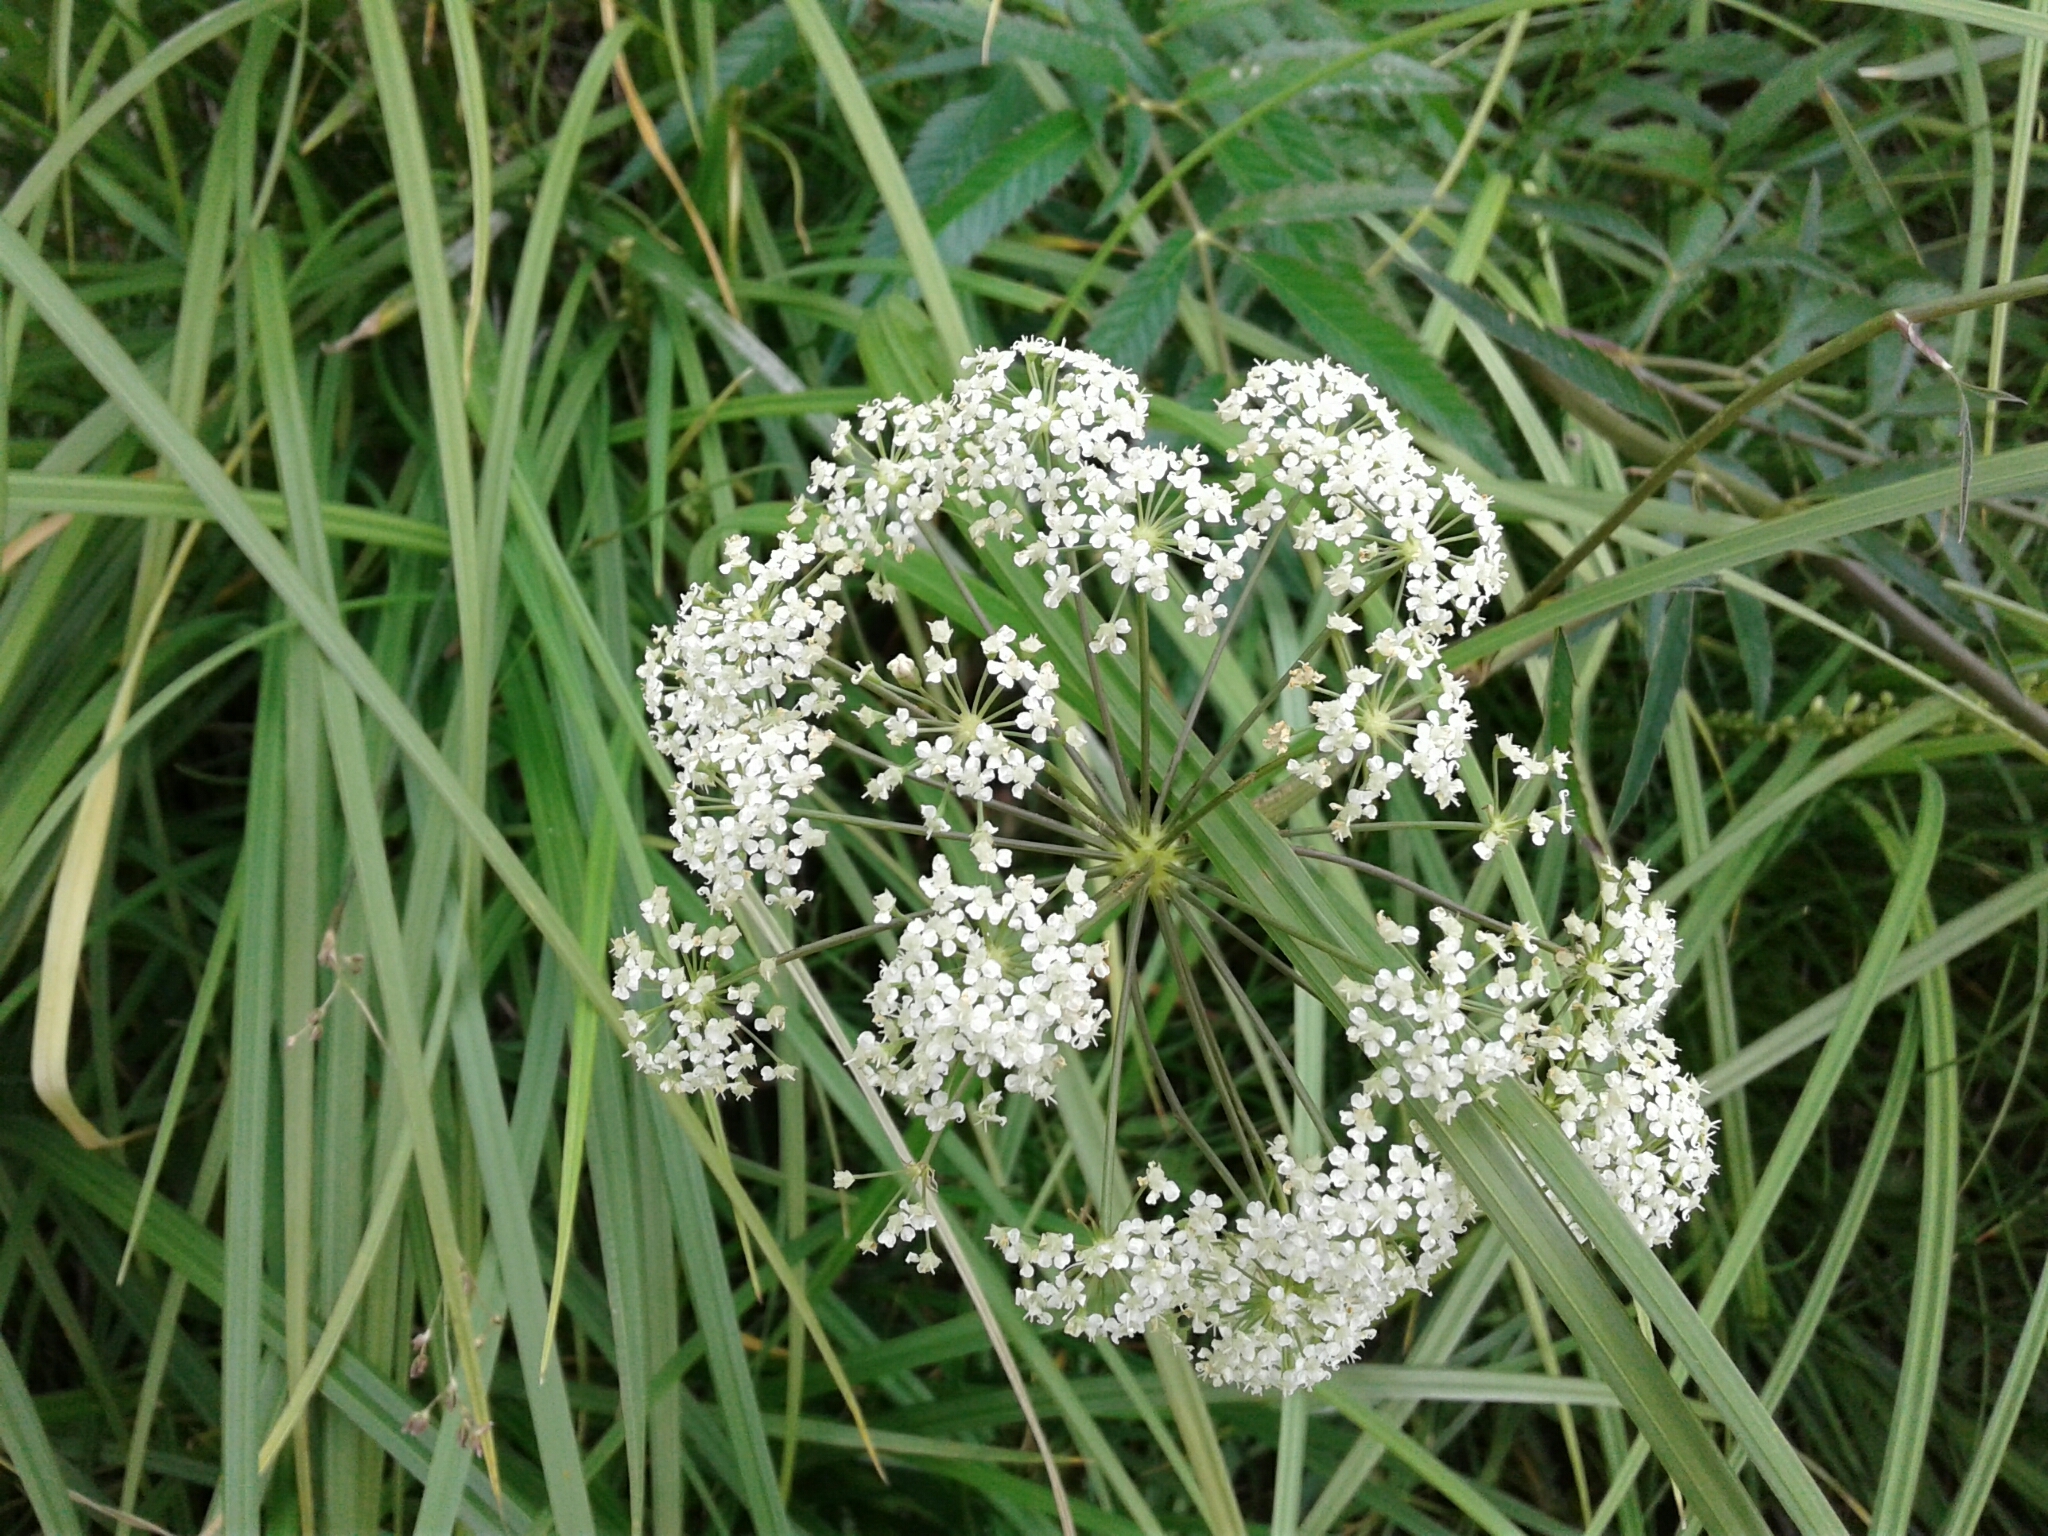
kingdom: Plantae
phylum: Tracheophyta
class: Magnoliopsida
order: Apiales
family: Apiaceae
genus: Cicuta
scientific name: Cicuta maculata
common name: Spotted cowbane
